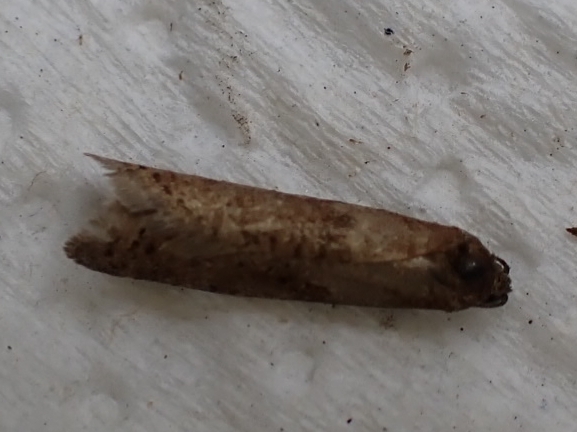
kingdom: Animalia
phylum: Arthropoda
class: Insecta
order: Lepidoptera
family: Tortricidae
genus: Tortricodes
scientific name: Tortricodes alternella
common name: Winter shade
